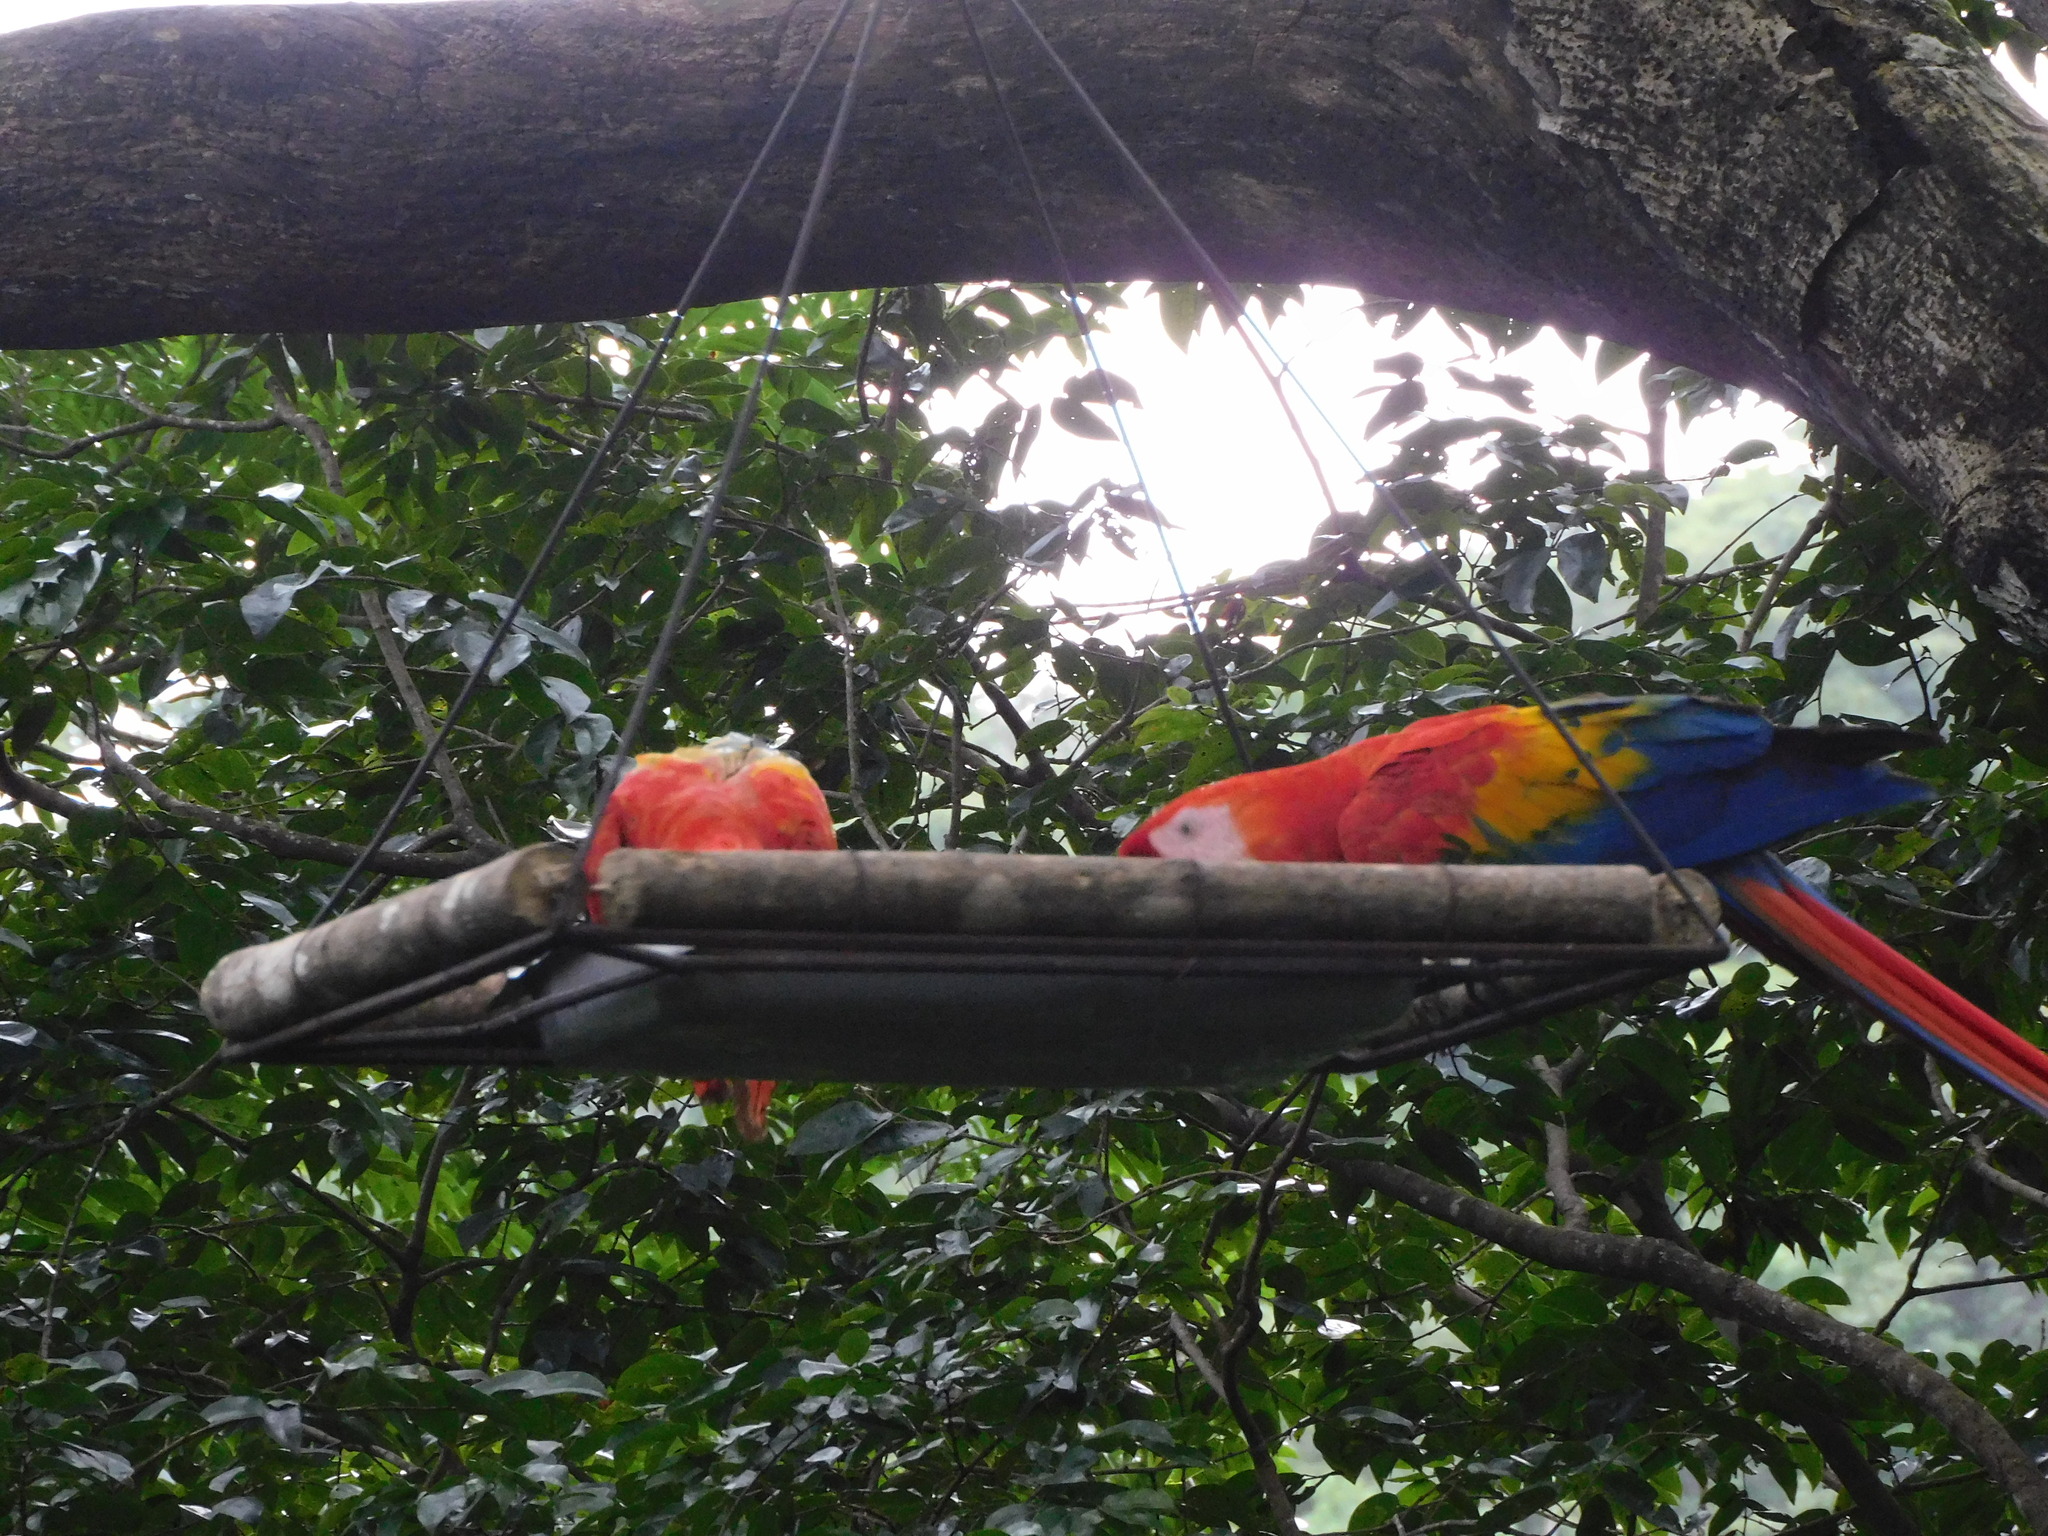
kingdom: Animalia
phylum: Chordata
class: Aves
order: Psittaciformes
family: Psittacidae
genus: Ara
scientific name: Ara macao
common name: Scarlet macaw
